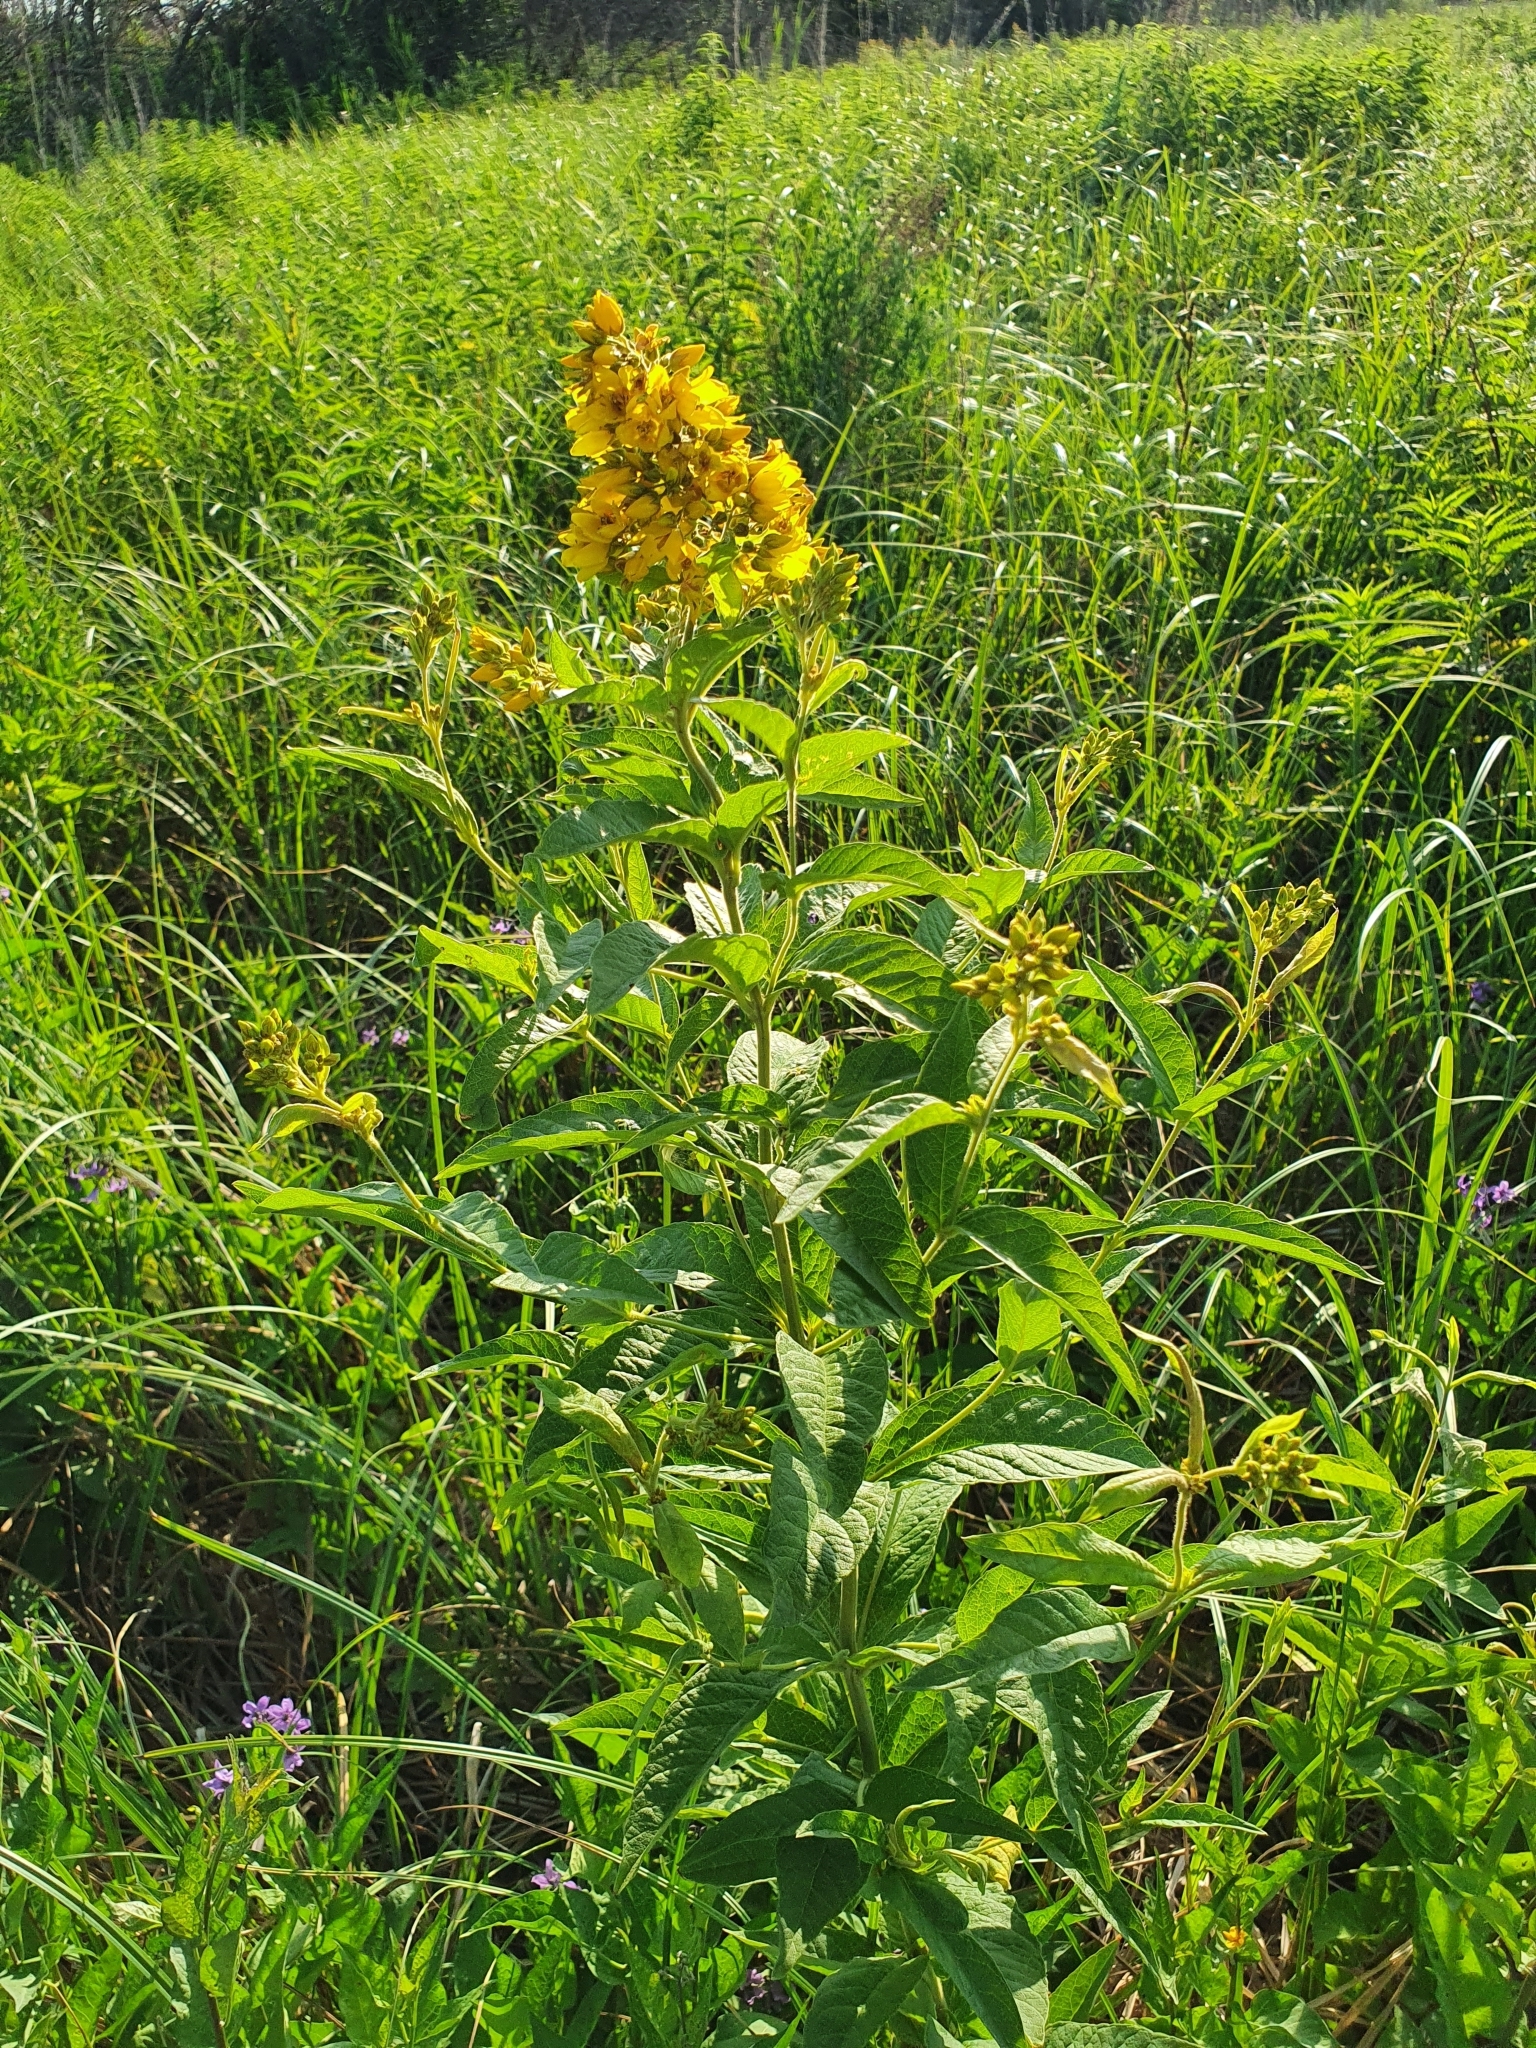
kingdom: Plantae
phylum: Tracheophyta
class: Magnoliopsida
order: Ericales
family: Primulaceae
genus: Lysimachia
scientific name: Lysimachia vulgaris
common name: Yellow loosestrife
